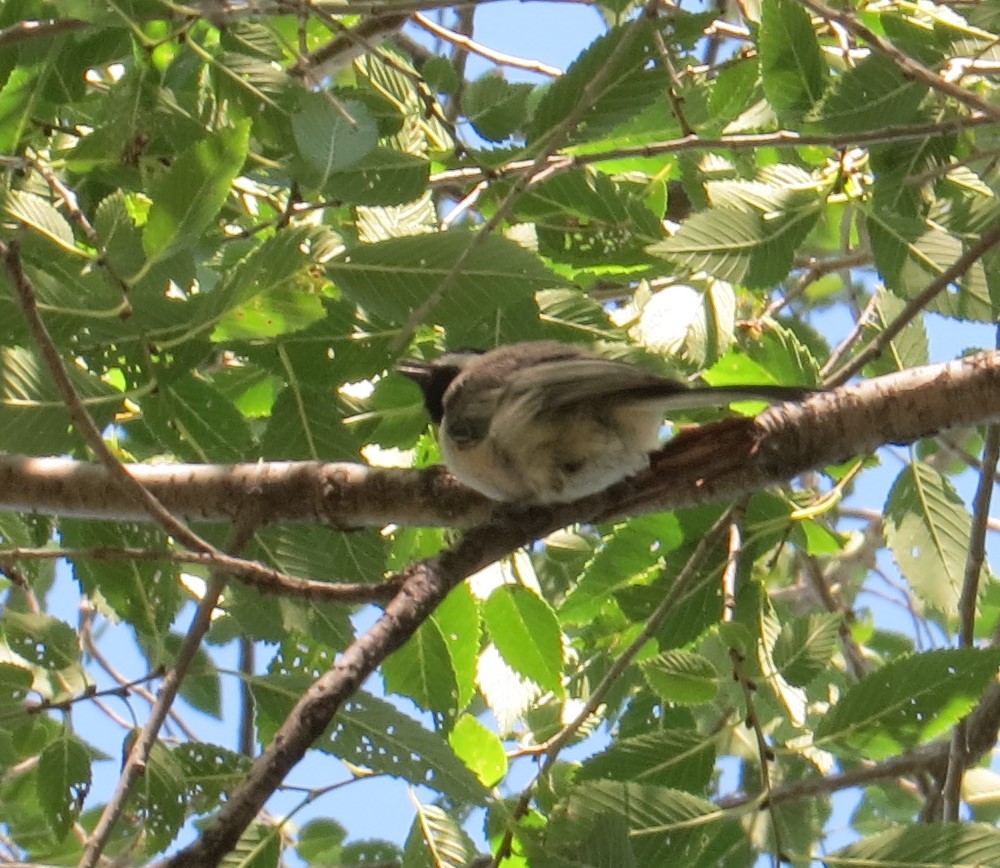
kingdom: Animalia
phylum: Chordata
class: Aves
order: Passeriformes
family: Paridae
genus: Poecile
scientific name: Poecile atricapillus
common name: Black-capped chickadee
